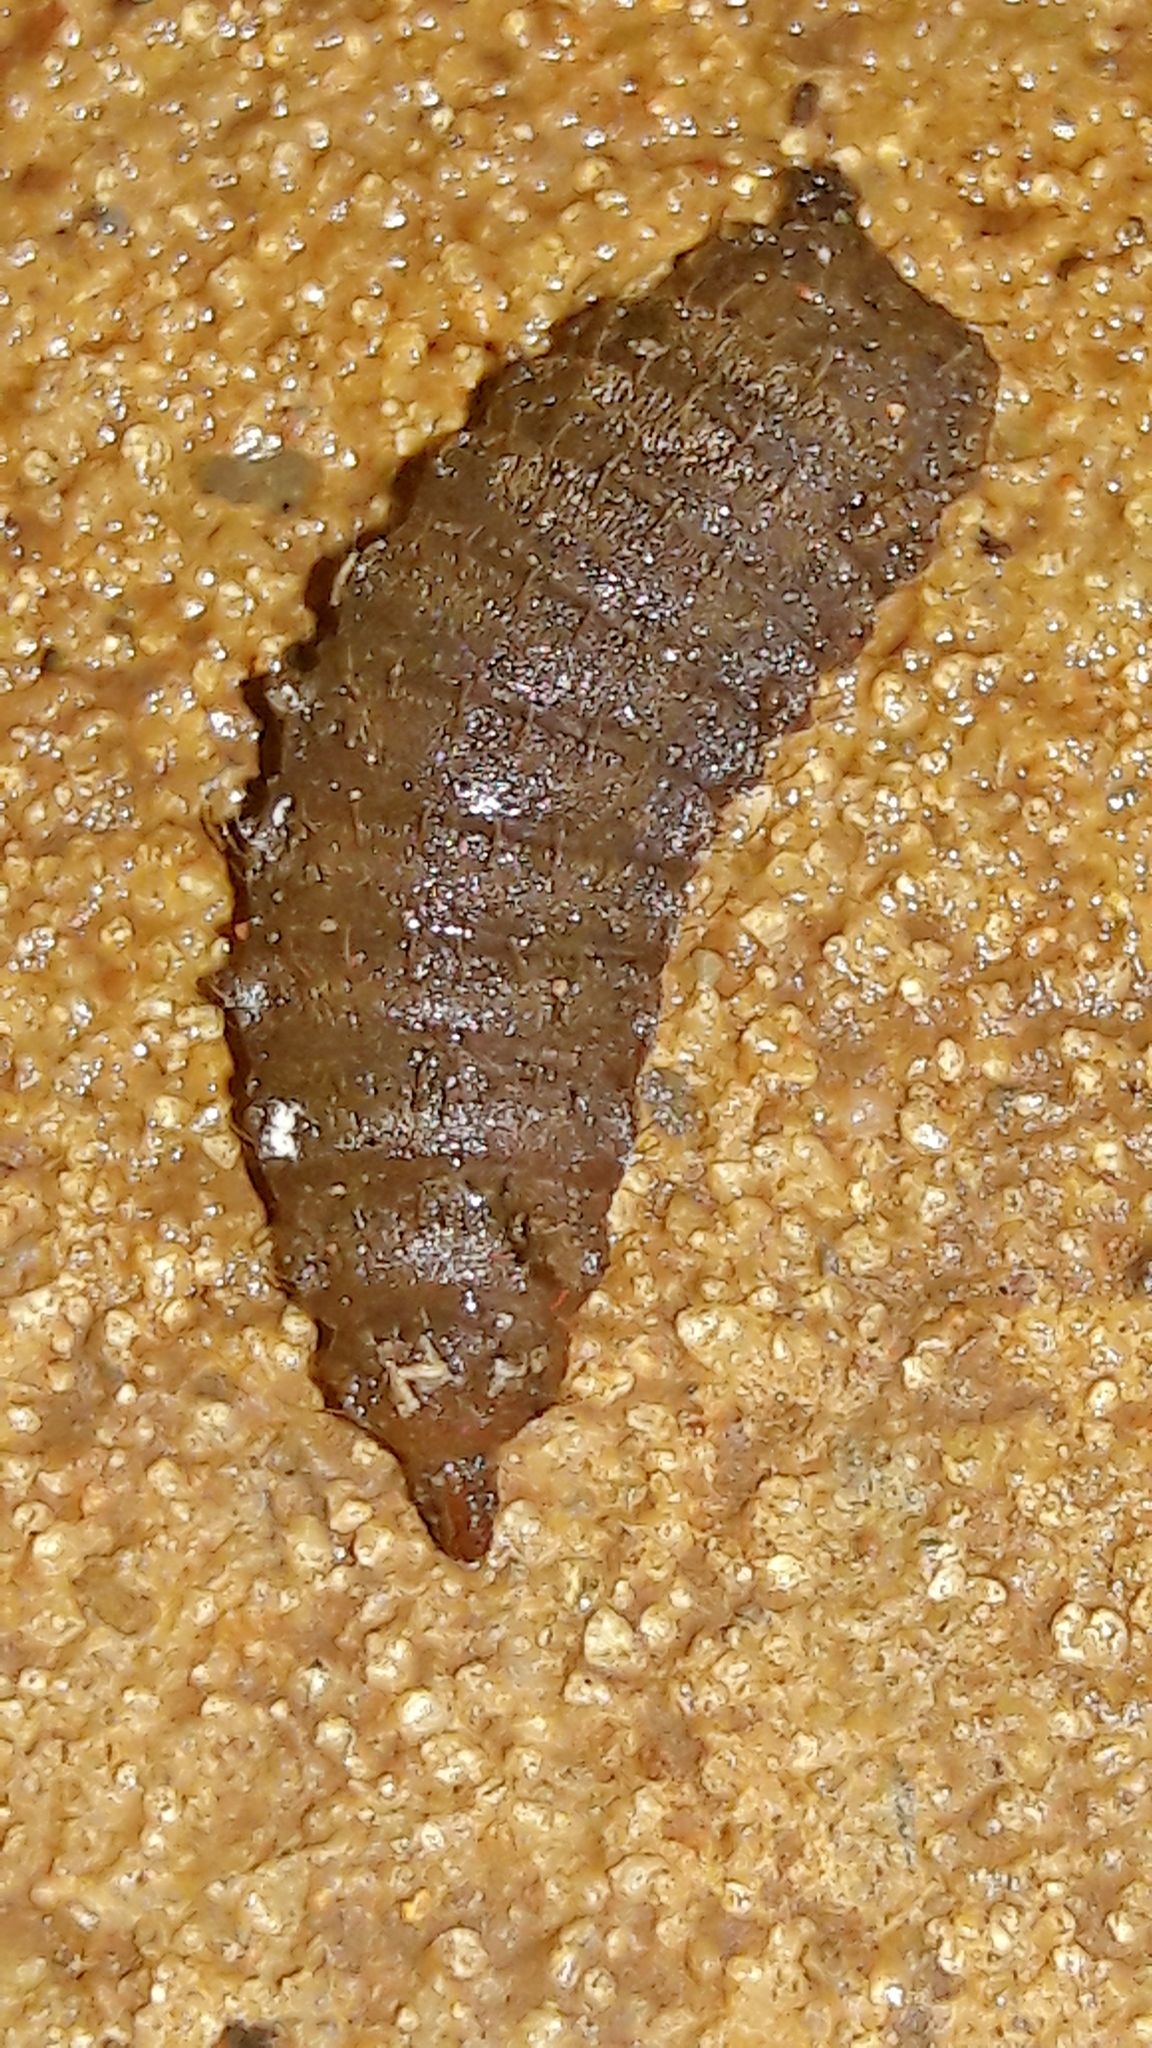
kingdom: Animalia
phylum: Arthropoda
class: Insecta
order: Diptera
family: Stratiomyidae
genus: Hermetia
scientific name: Hermetia illucens
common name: Black soldier fly
